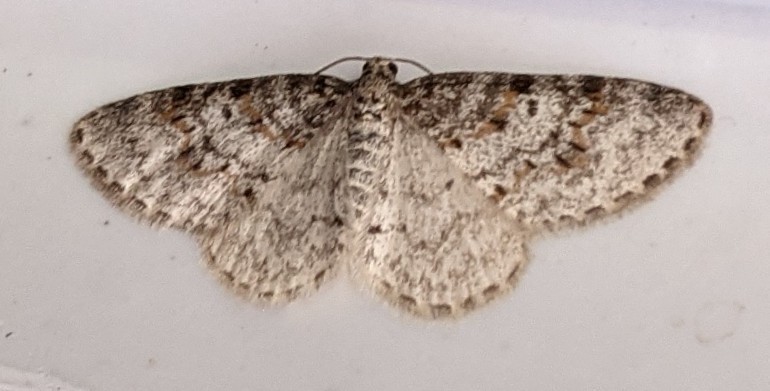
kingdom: Animalia
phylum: Arthropoda
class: Insecta
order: Lepidoptera
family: Geometridae
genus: Hydrelia
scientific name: Hydrelia inornata
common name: Unadorned carpet moth
